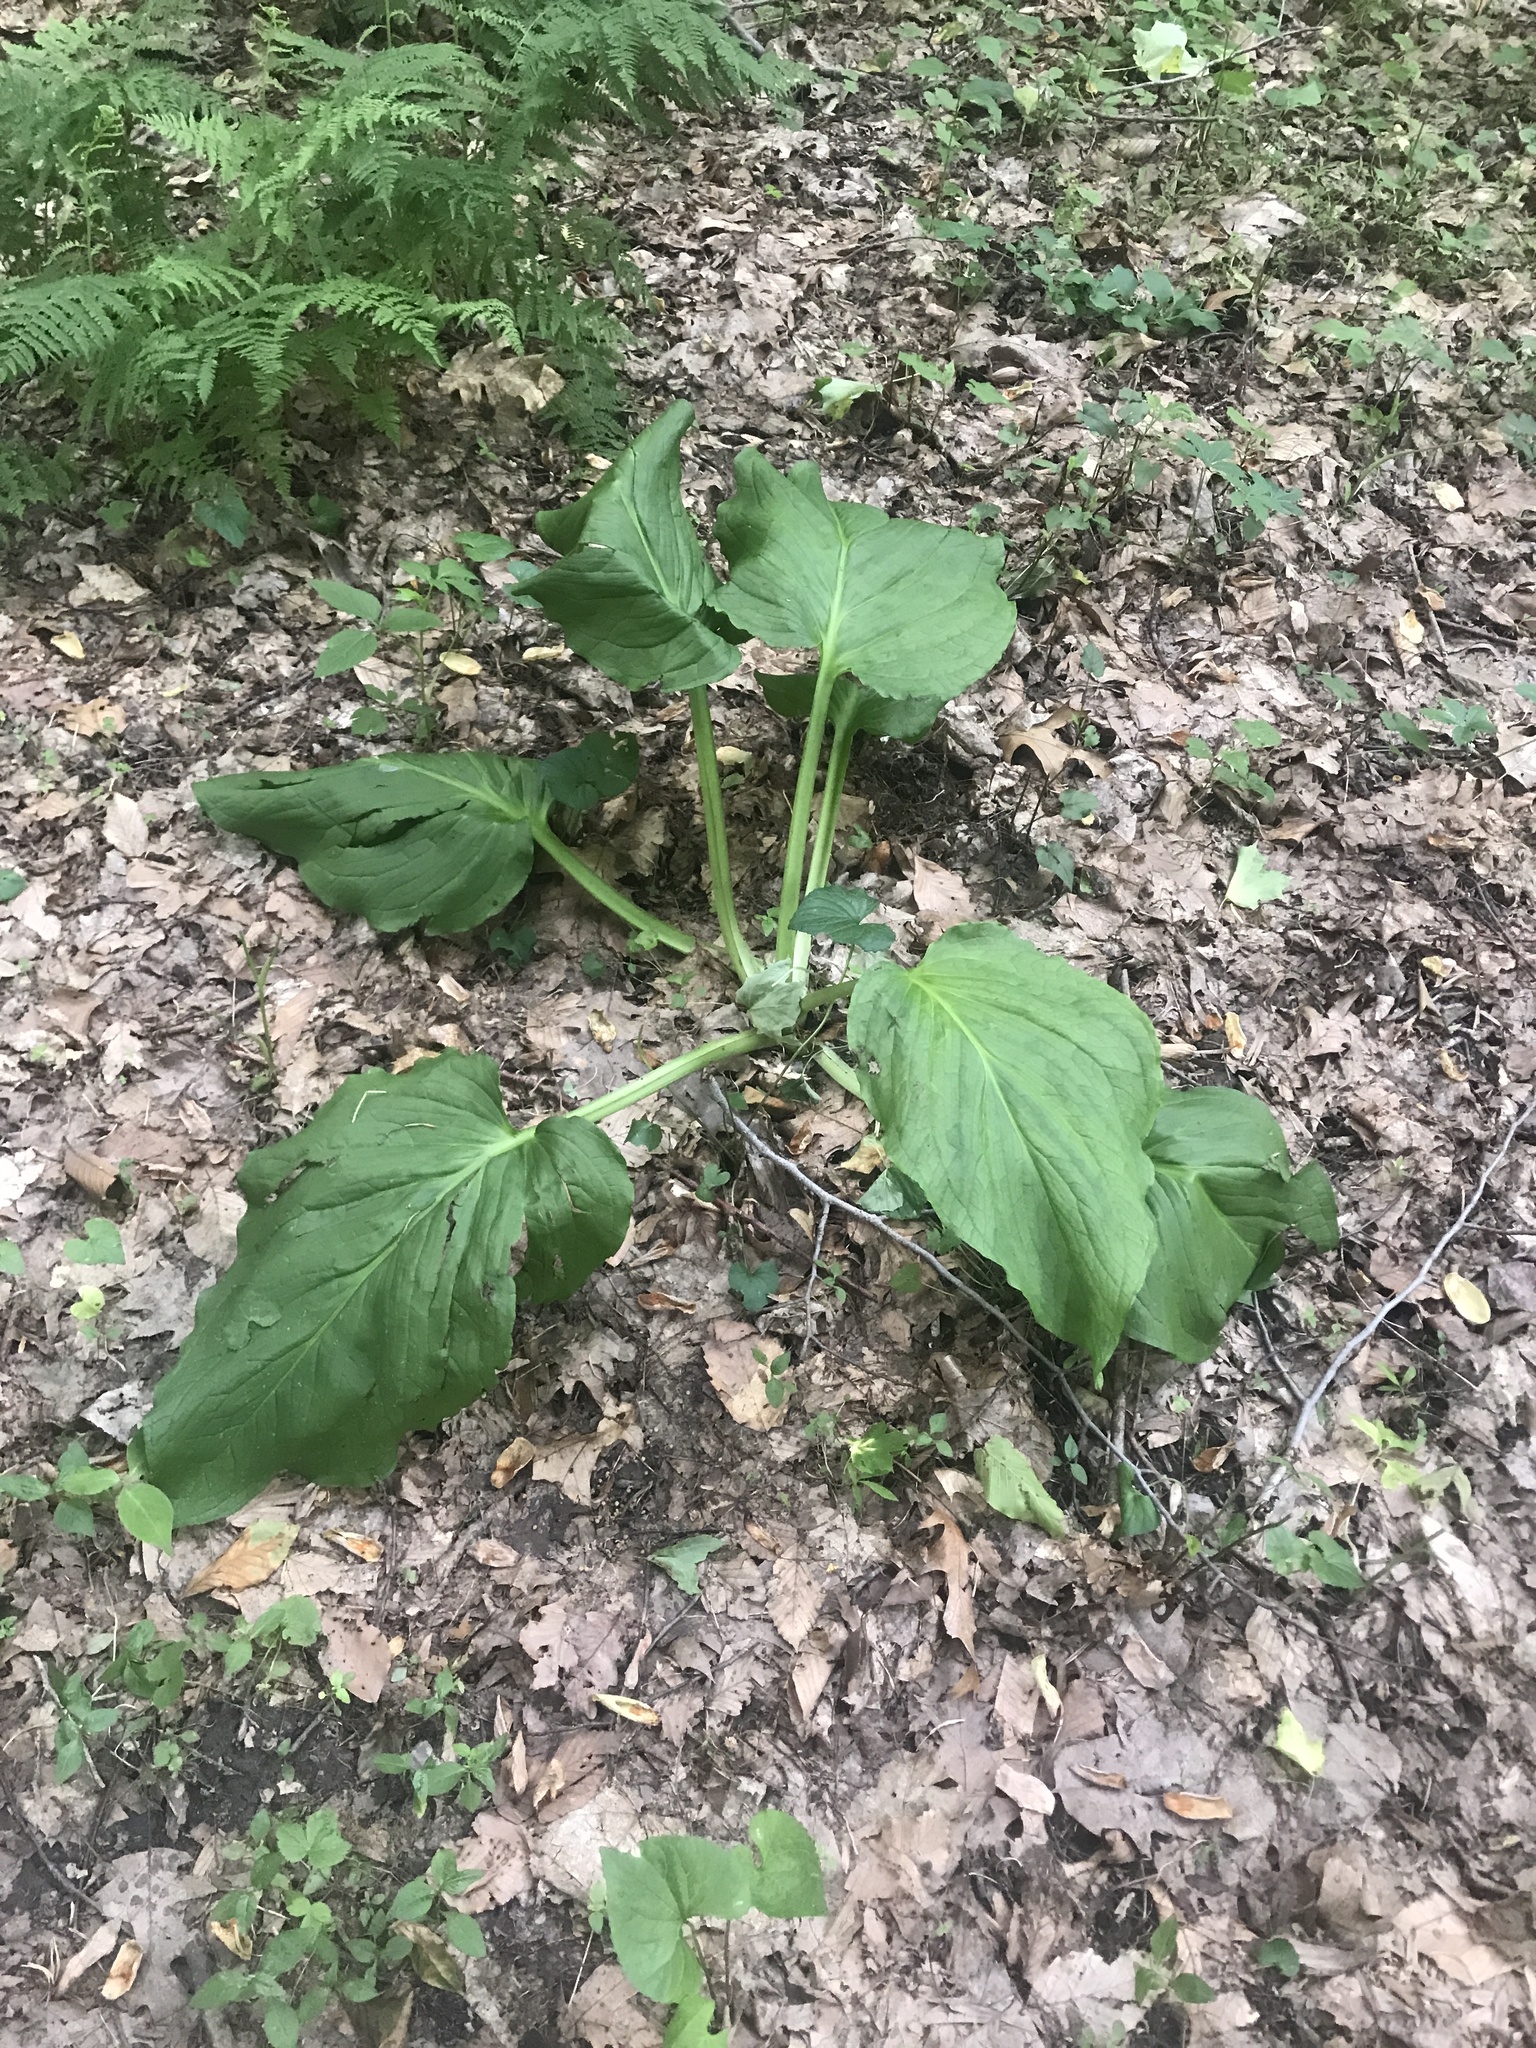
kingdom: Plantae
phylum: Tracheophyta
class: Liliopsida
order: Alismatales
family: Araceae
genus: Symplocarpus
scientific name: Symplocarpus foetidus
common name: Eastern skunk cabbage
